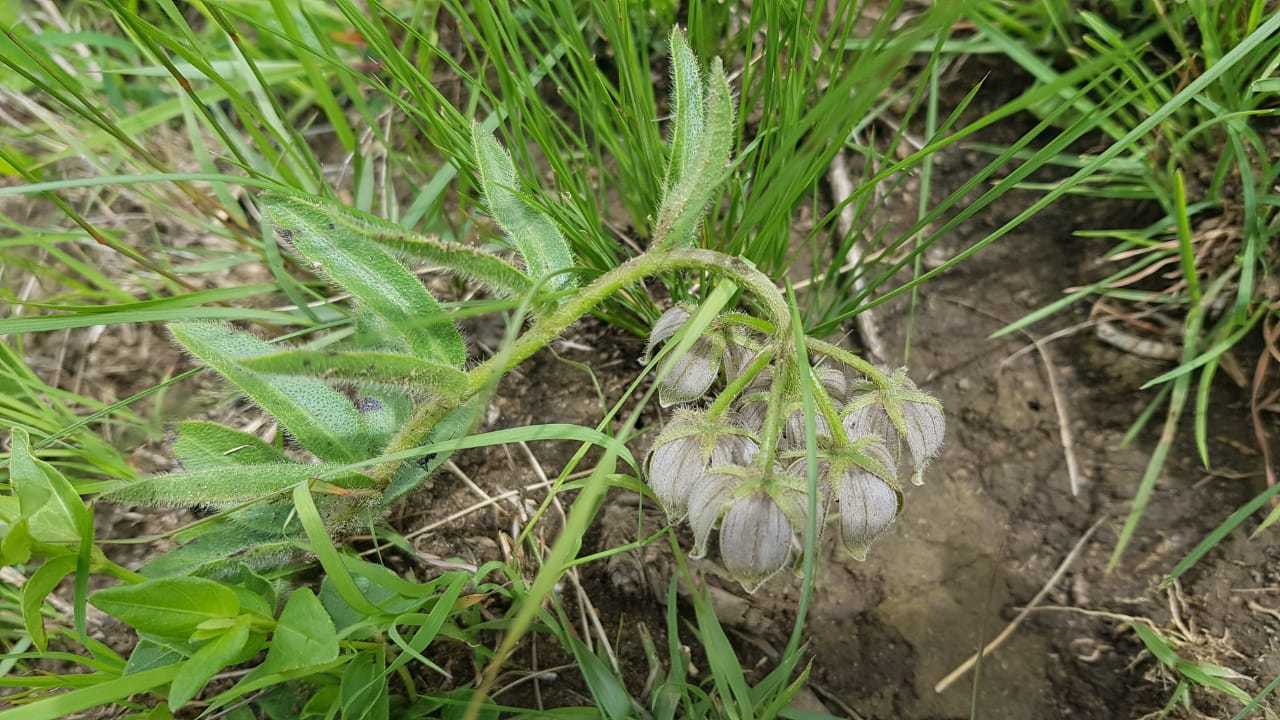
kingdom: Plantae
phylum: Tracheophyta
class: Magnoliopsida
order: Gentianales
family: Apocynaceae
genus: Asclepias
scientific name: Asclepias cultriformis
